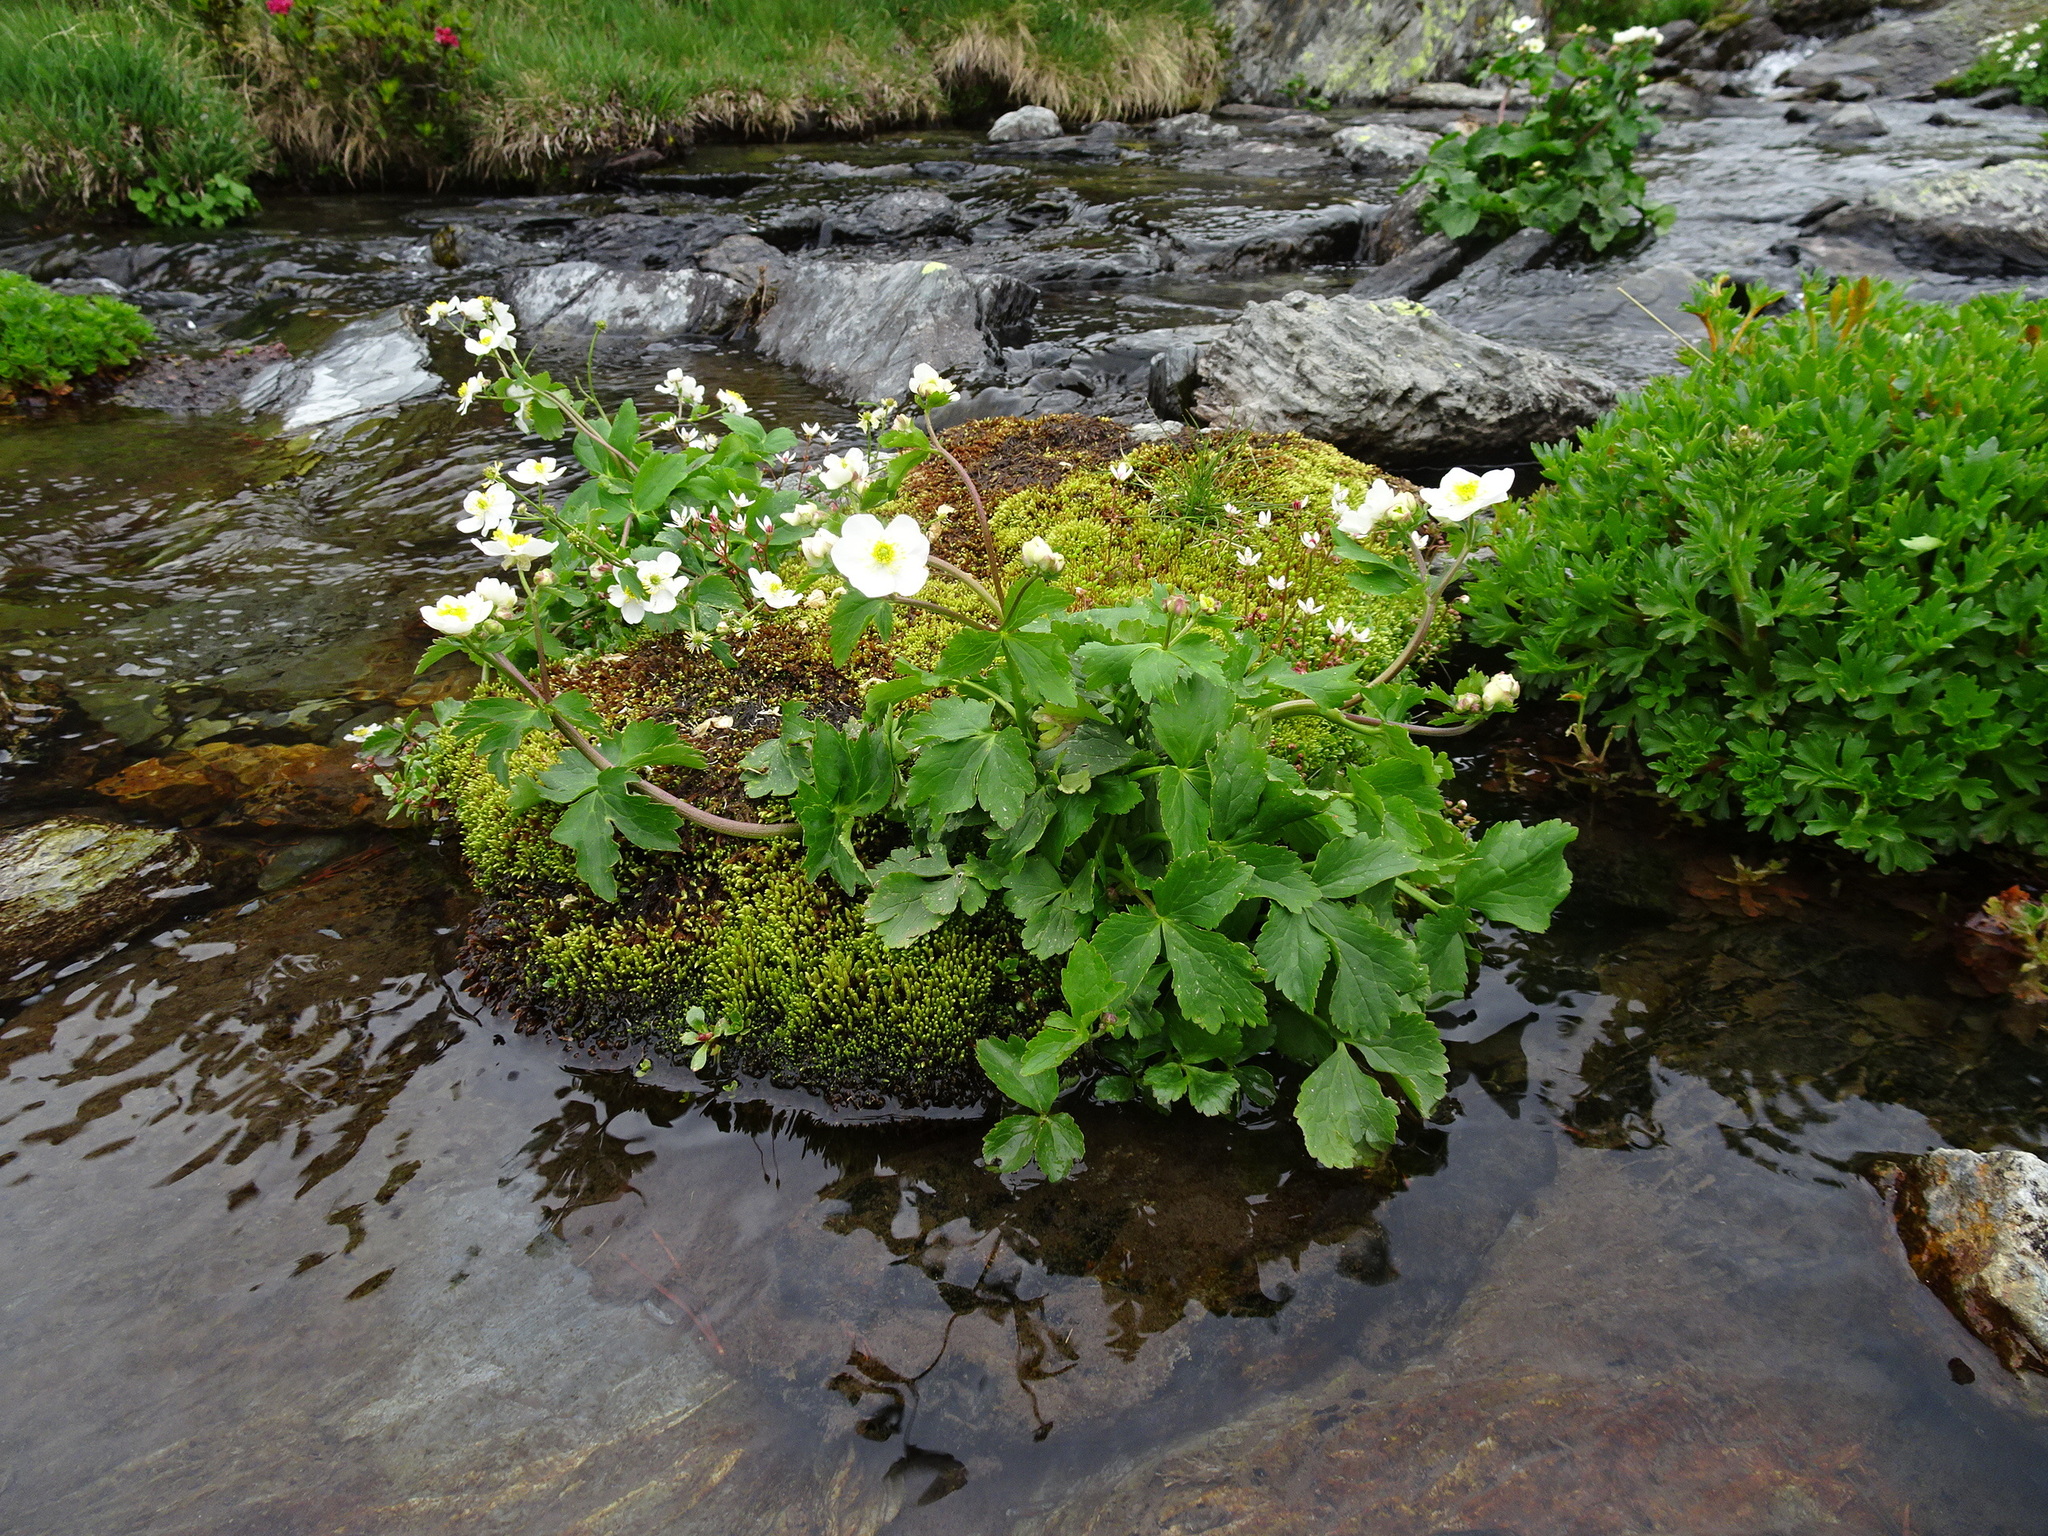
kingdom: Plantae
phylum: Tracheophyta
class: Magnoliopsida
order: Ranunculales
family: Ranunculaceae
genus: Ranunculus
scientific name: Ranunculus aconitifolius
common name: Aconite-leaved buttercup
